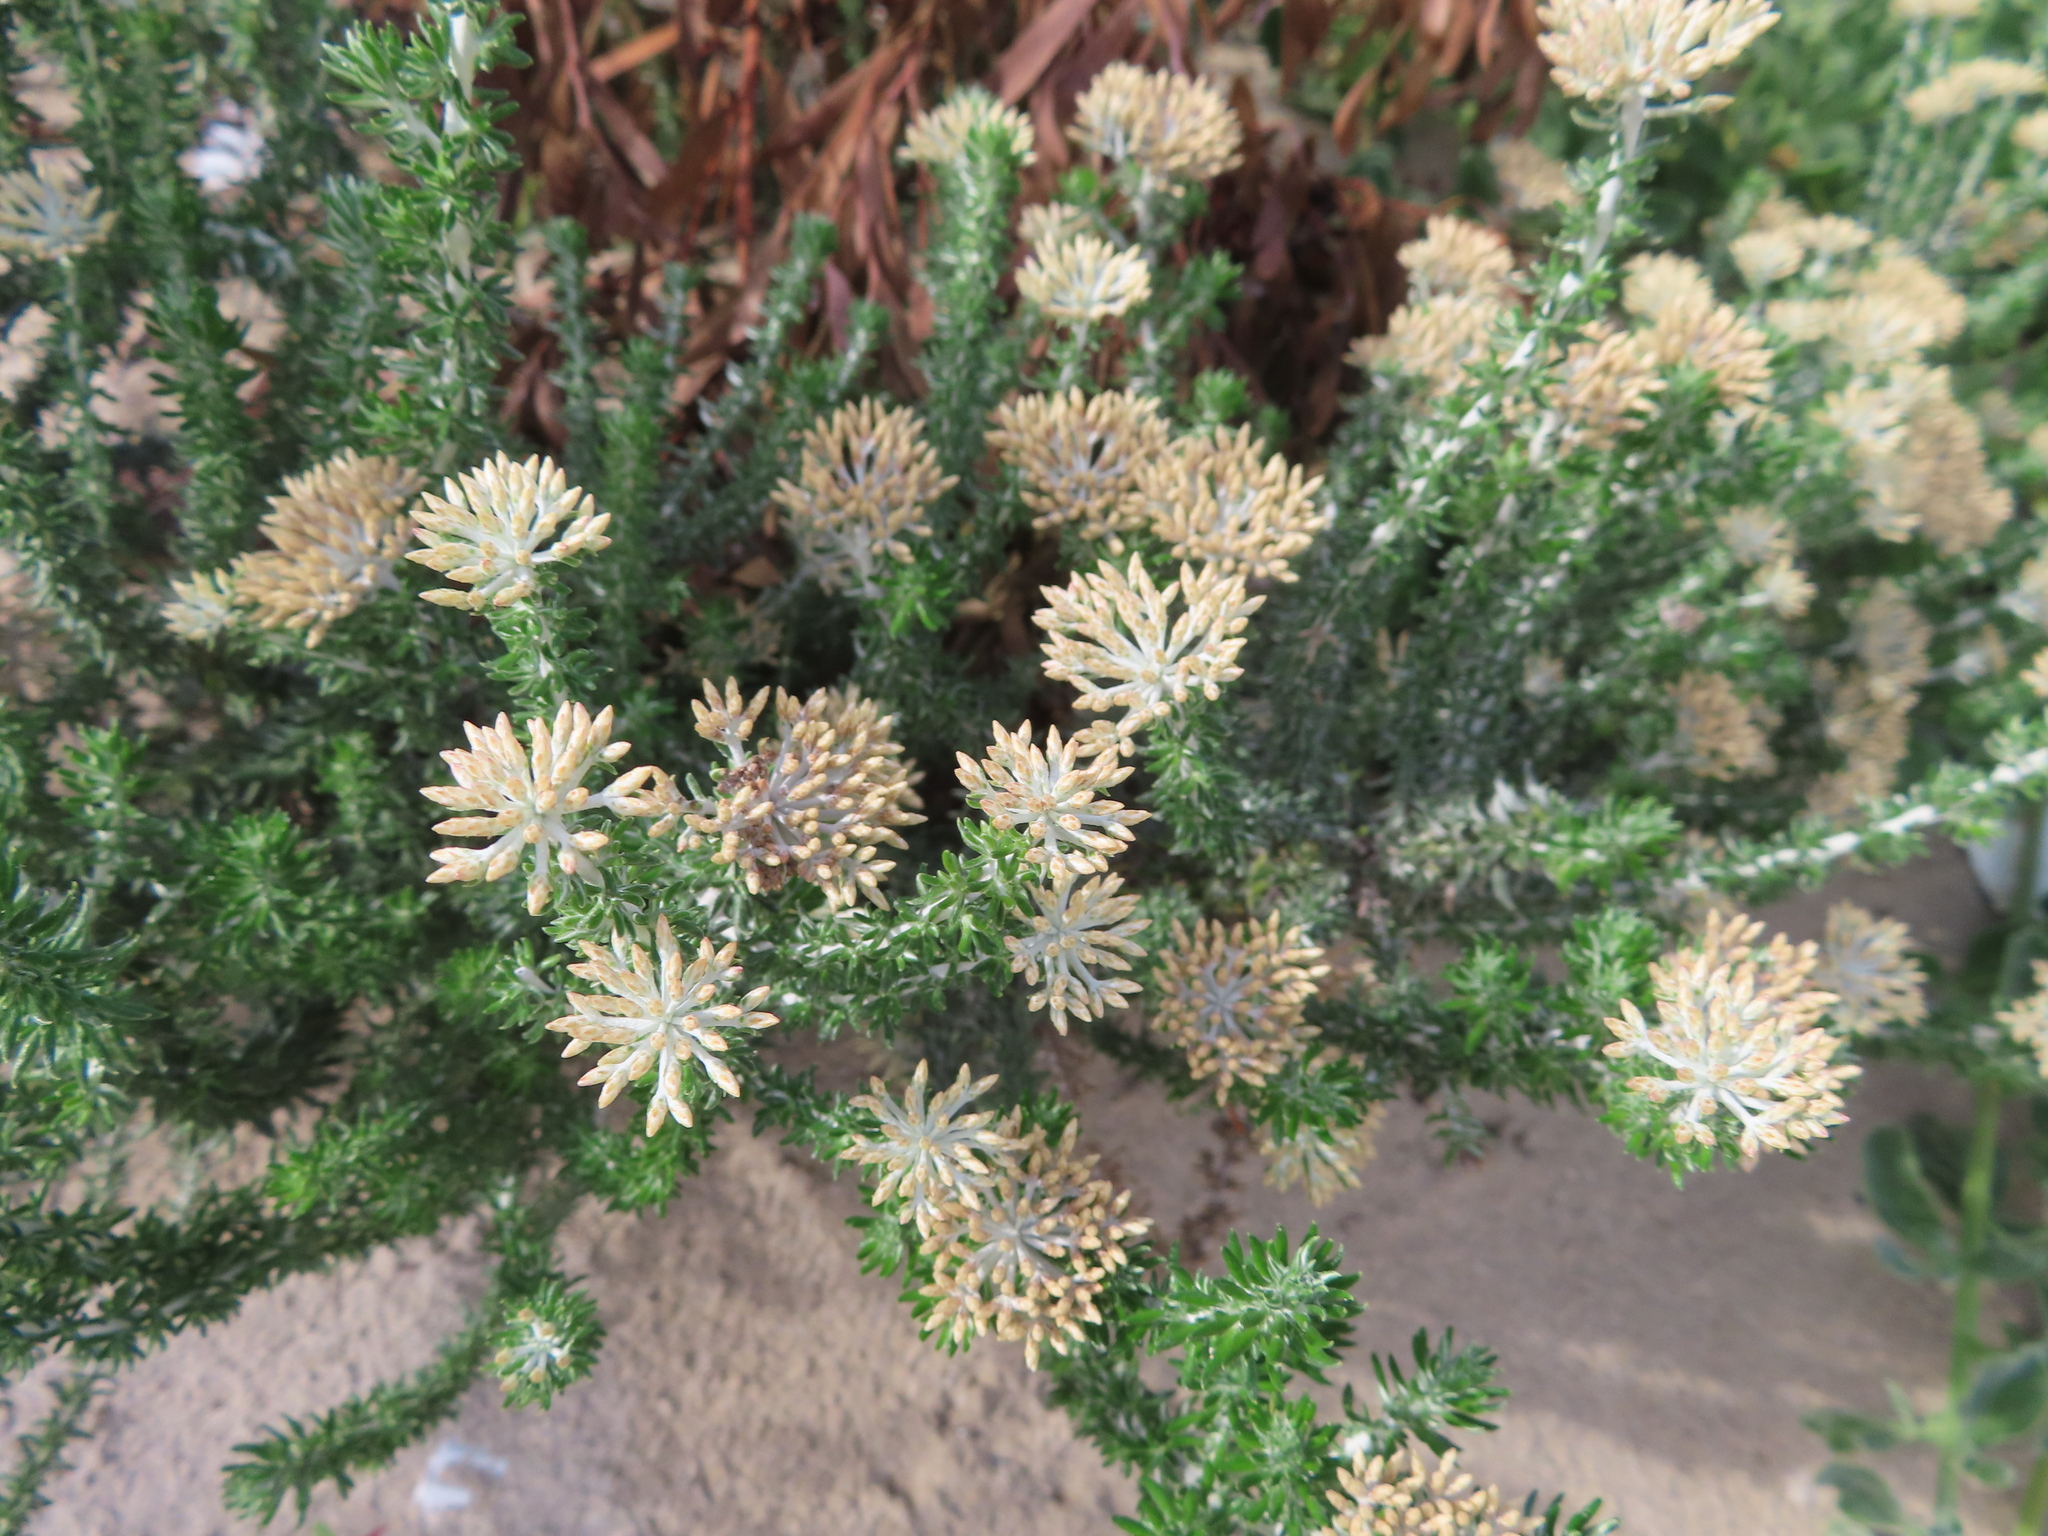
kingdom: Plantae
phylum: Tracheophyta
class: Magnoliopsida
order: Asterales
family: Asteraceae
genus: Metalasia
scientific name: Metalasia muricata
